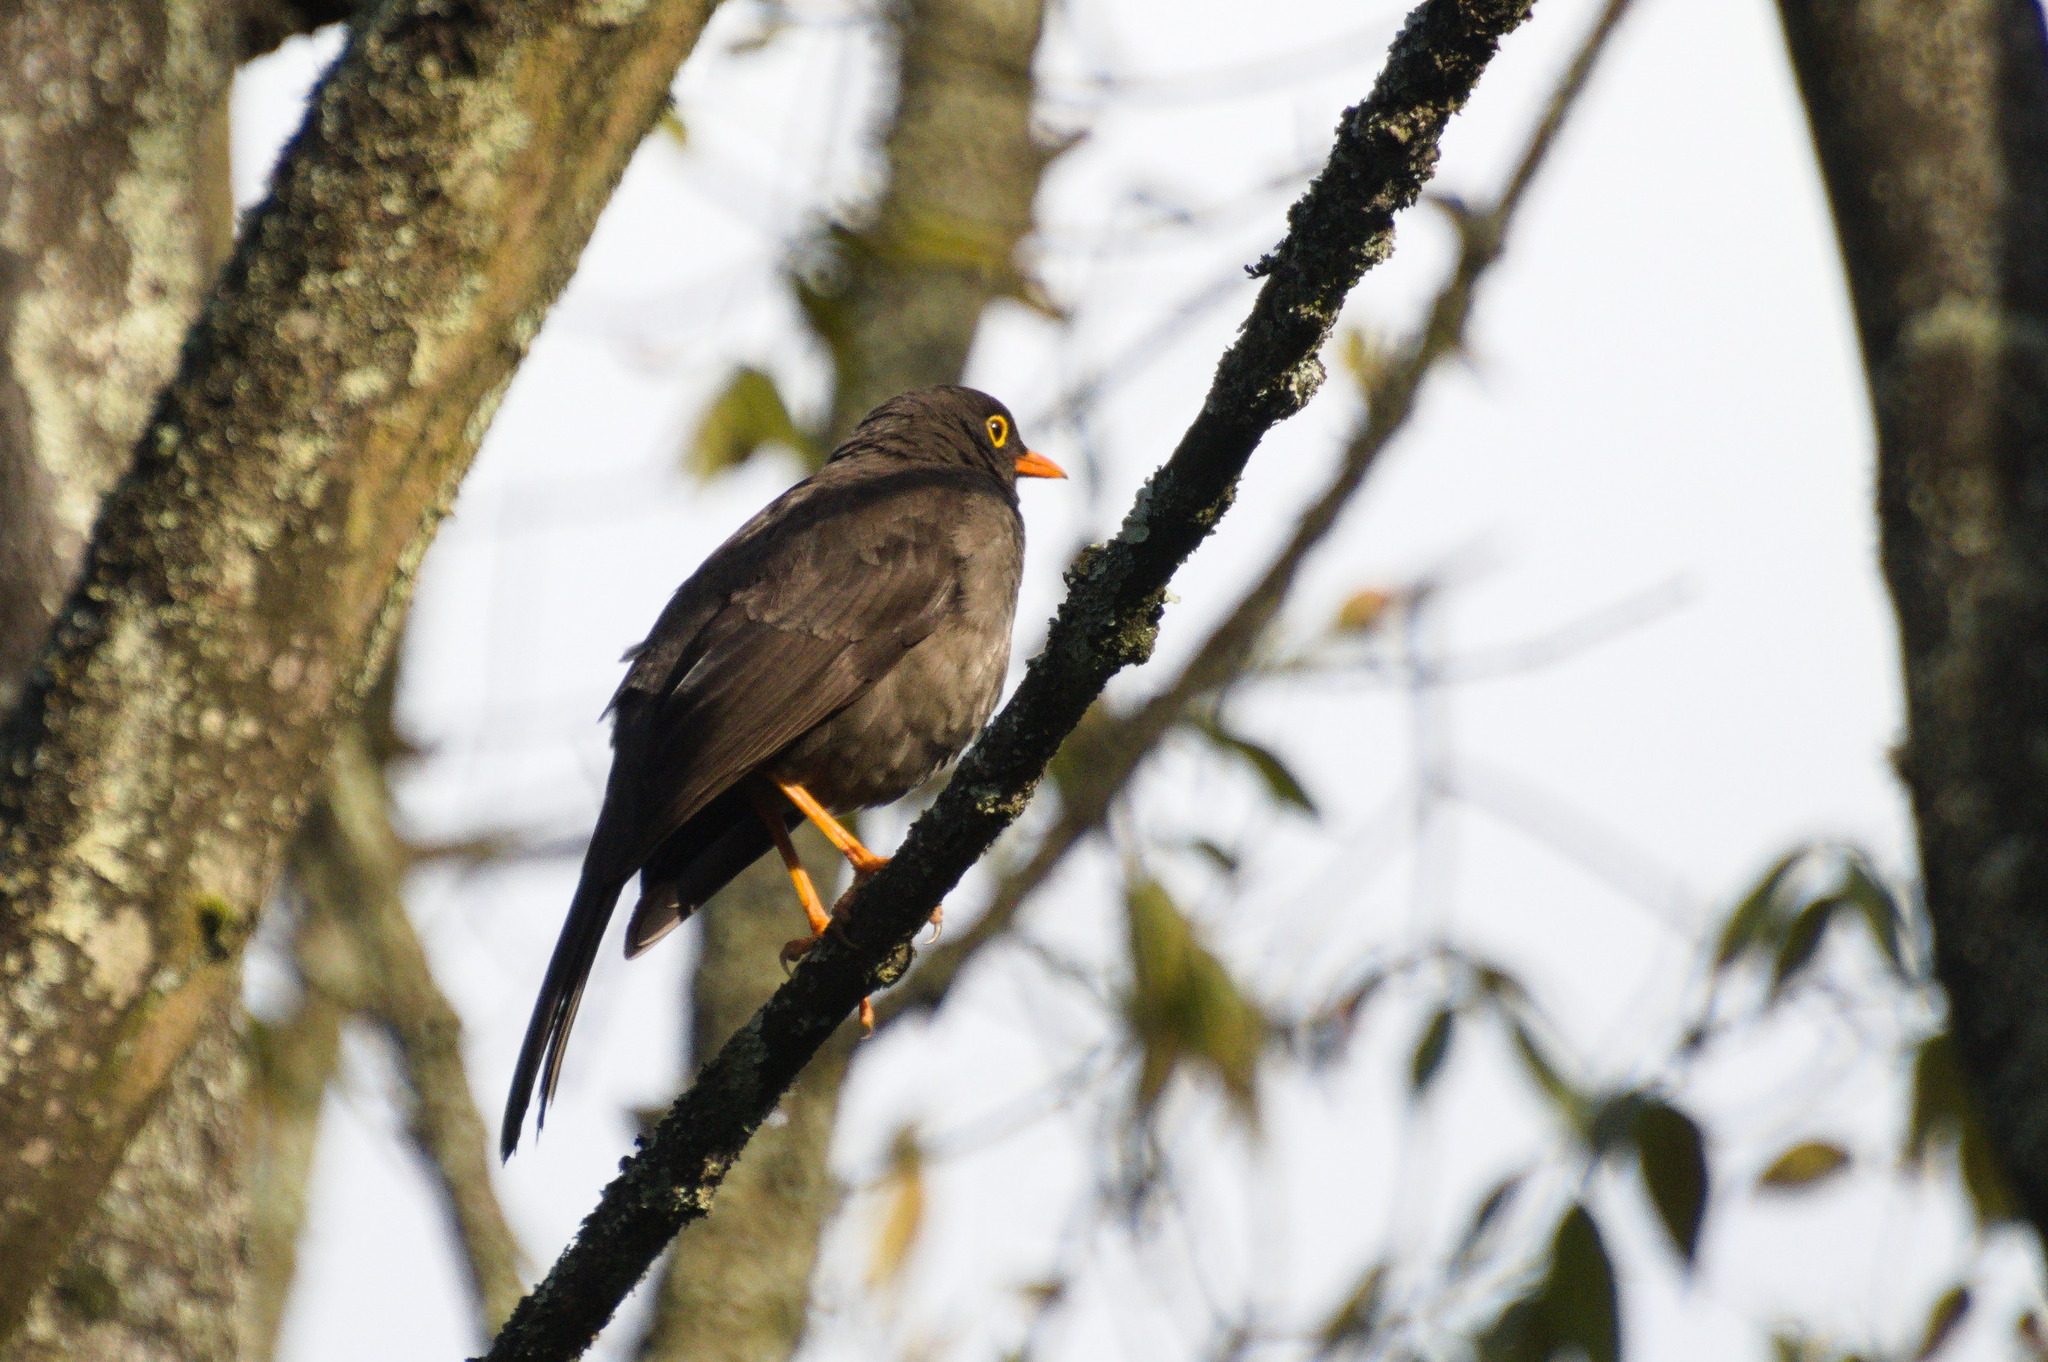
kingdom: Animalia
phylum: Chordata
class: Aves
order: Passeriformes
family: Turdidae
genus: Turdus
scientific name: Turdus fuscater
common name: Great thrush
